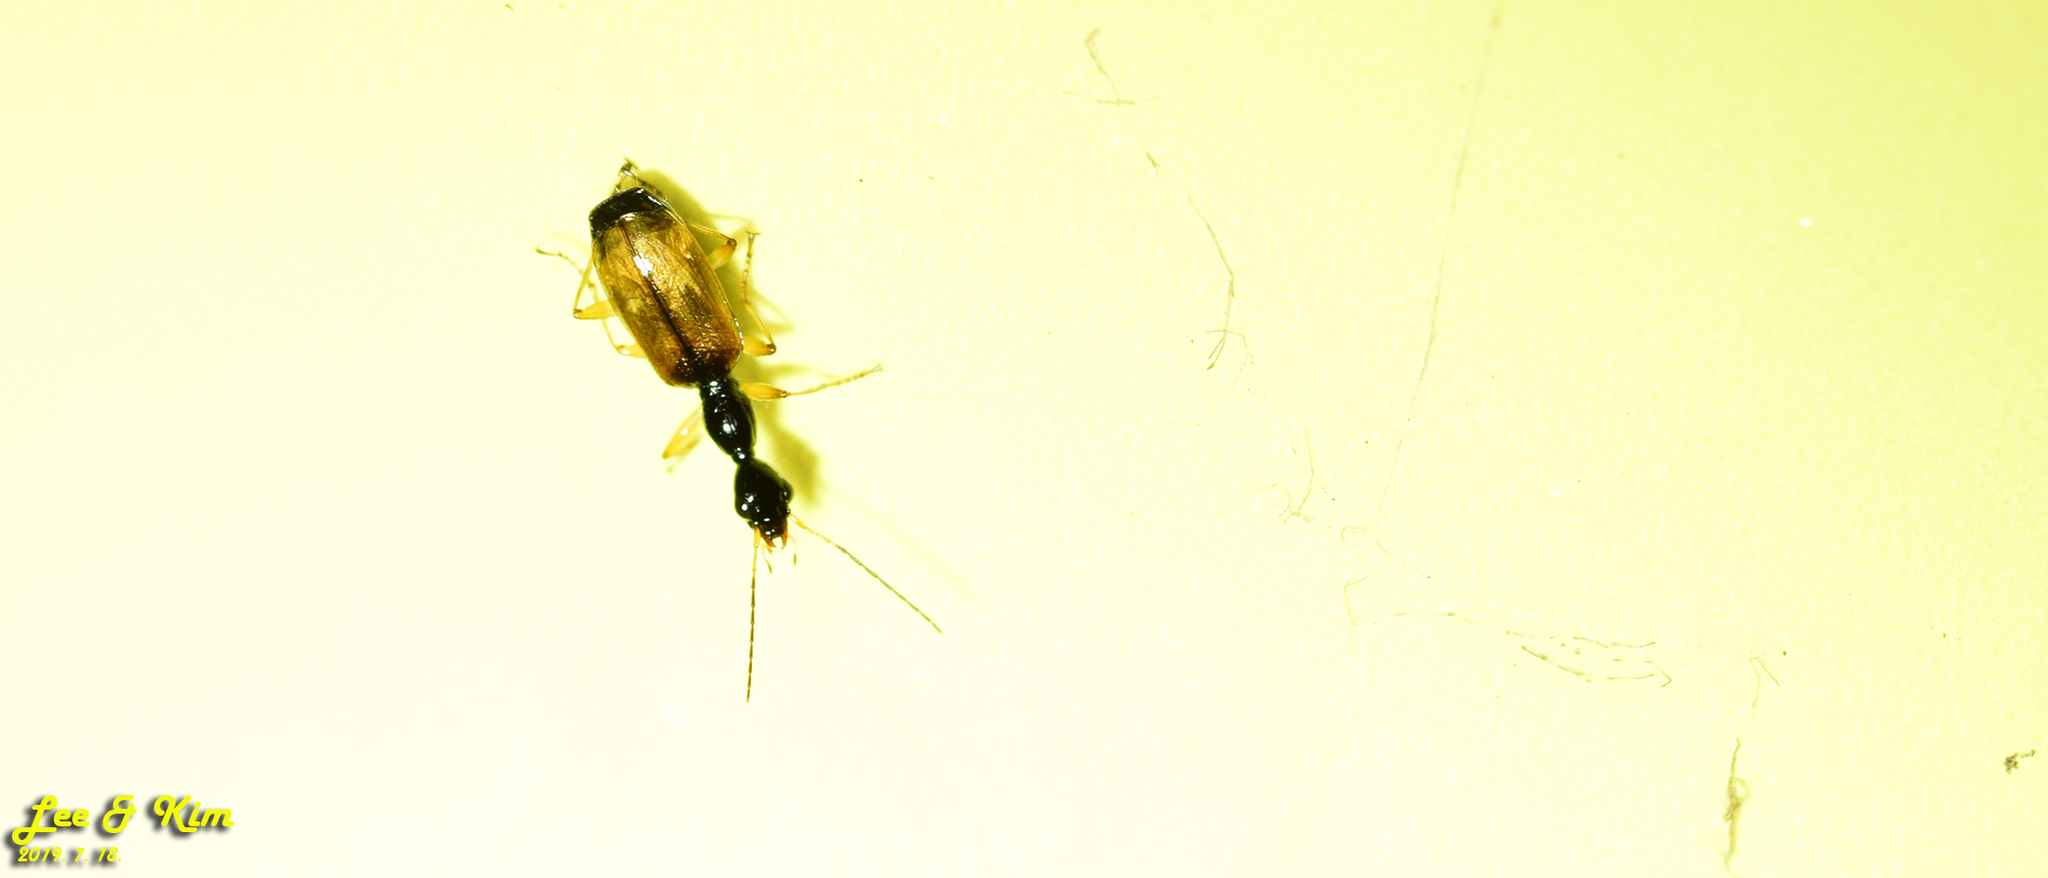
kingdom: Animalia
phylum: Arthropoda
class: Insecta
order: Coleoptera
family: Carabidae
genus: Odacantha
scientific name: Odacantha aegrota
